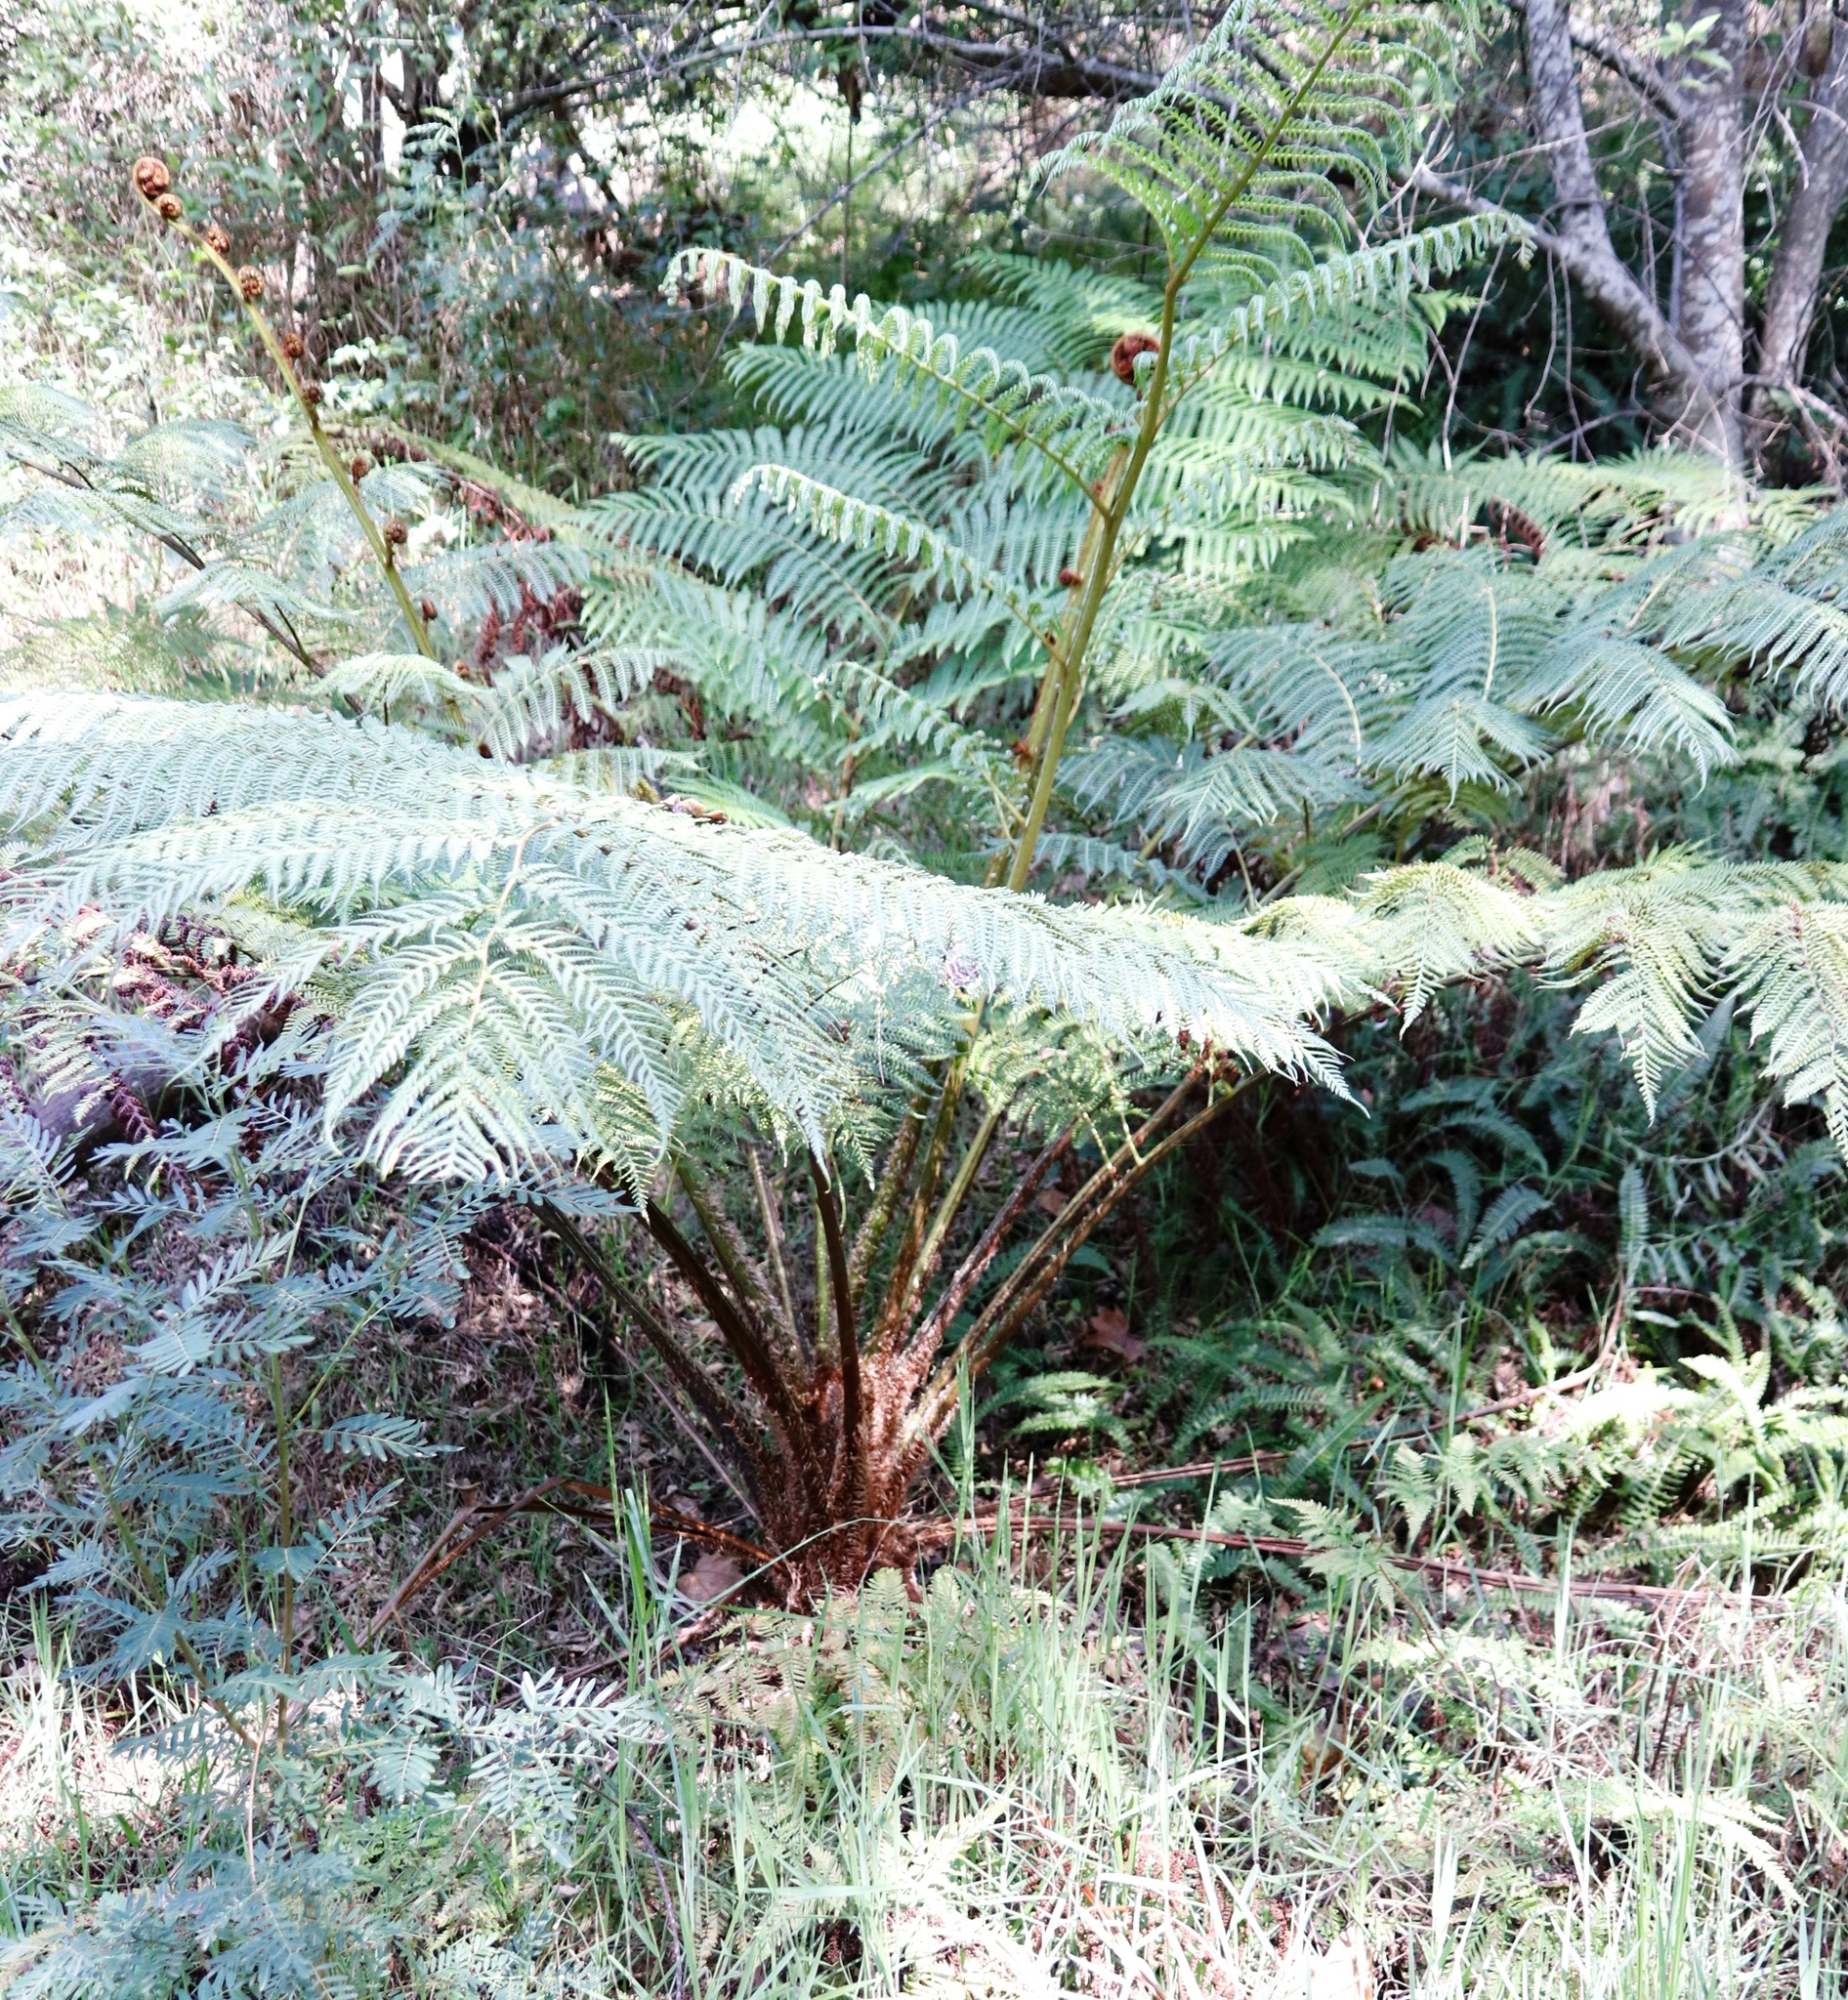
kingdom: Plantae
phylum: Tracheophyta
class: Polypodiopsida
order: Cyatheales
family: Cyatheaceae
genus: Sphaeropteris
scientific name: Sphaeropteris cooperi
